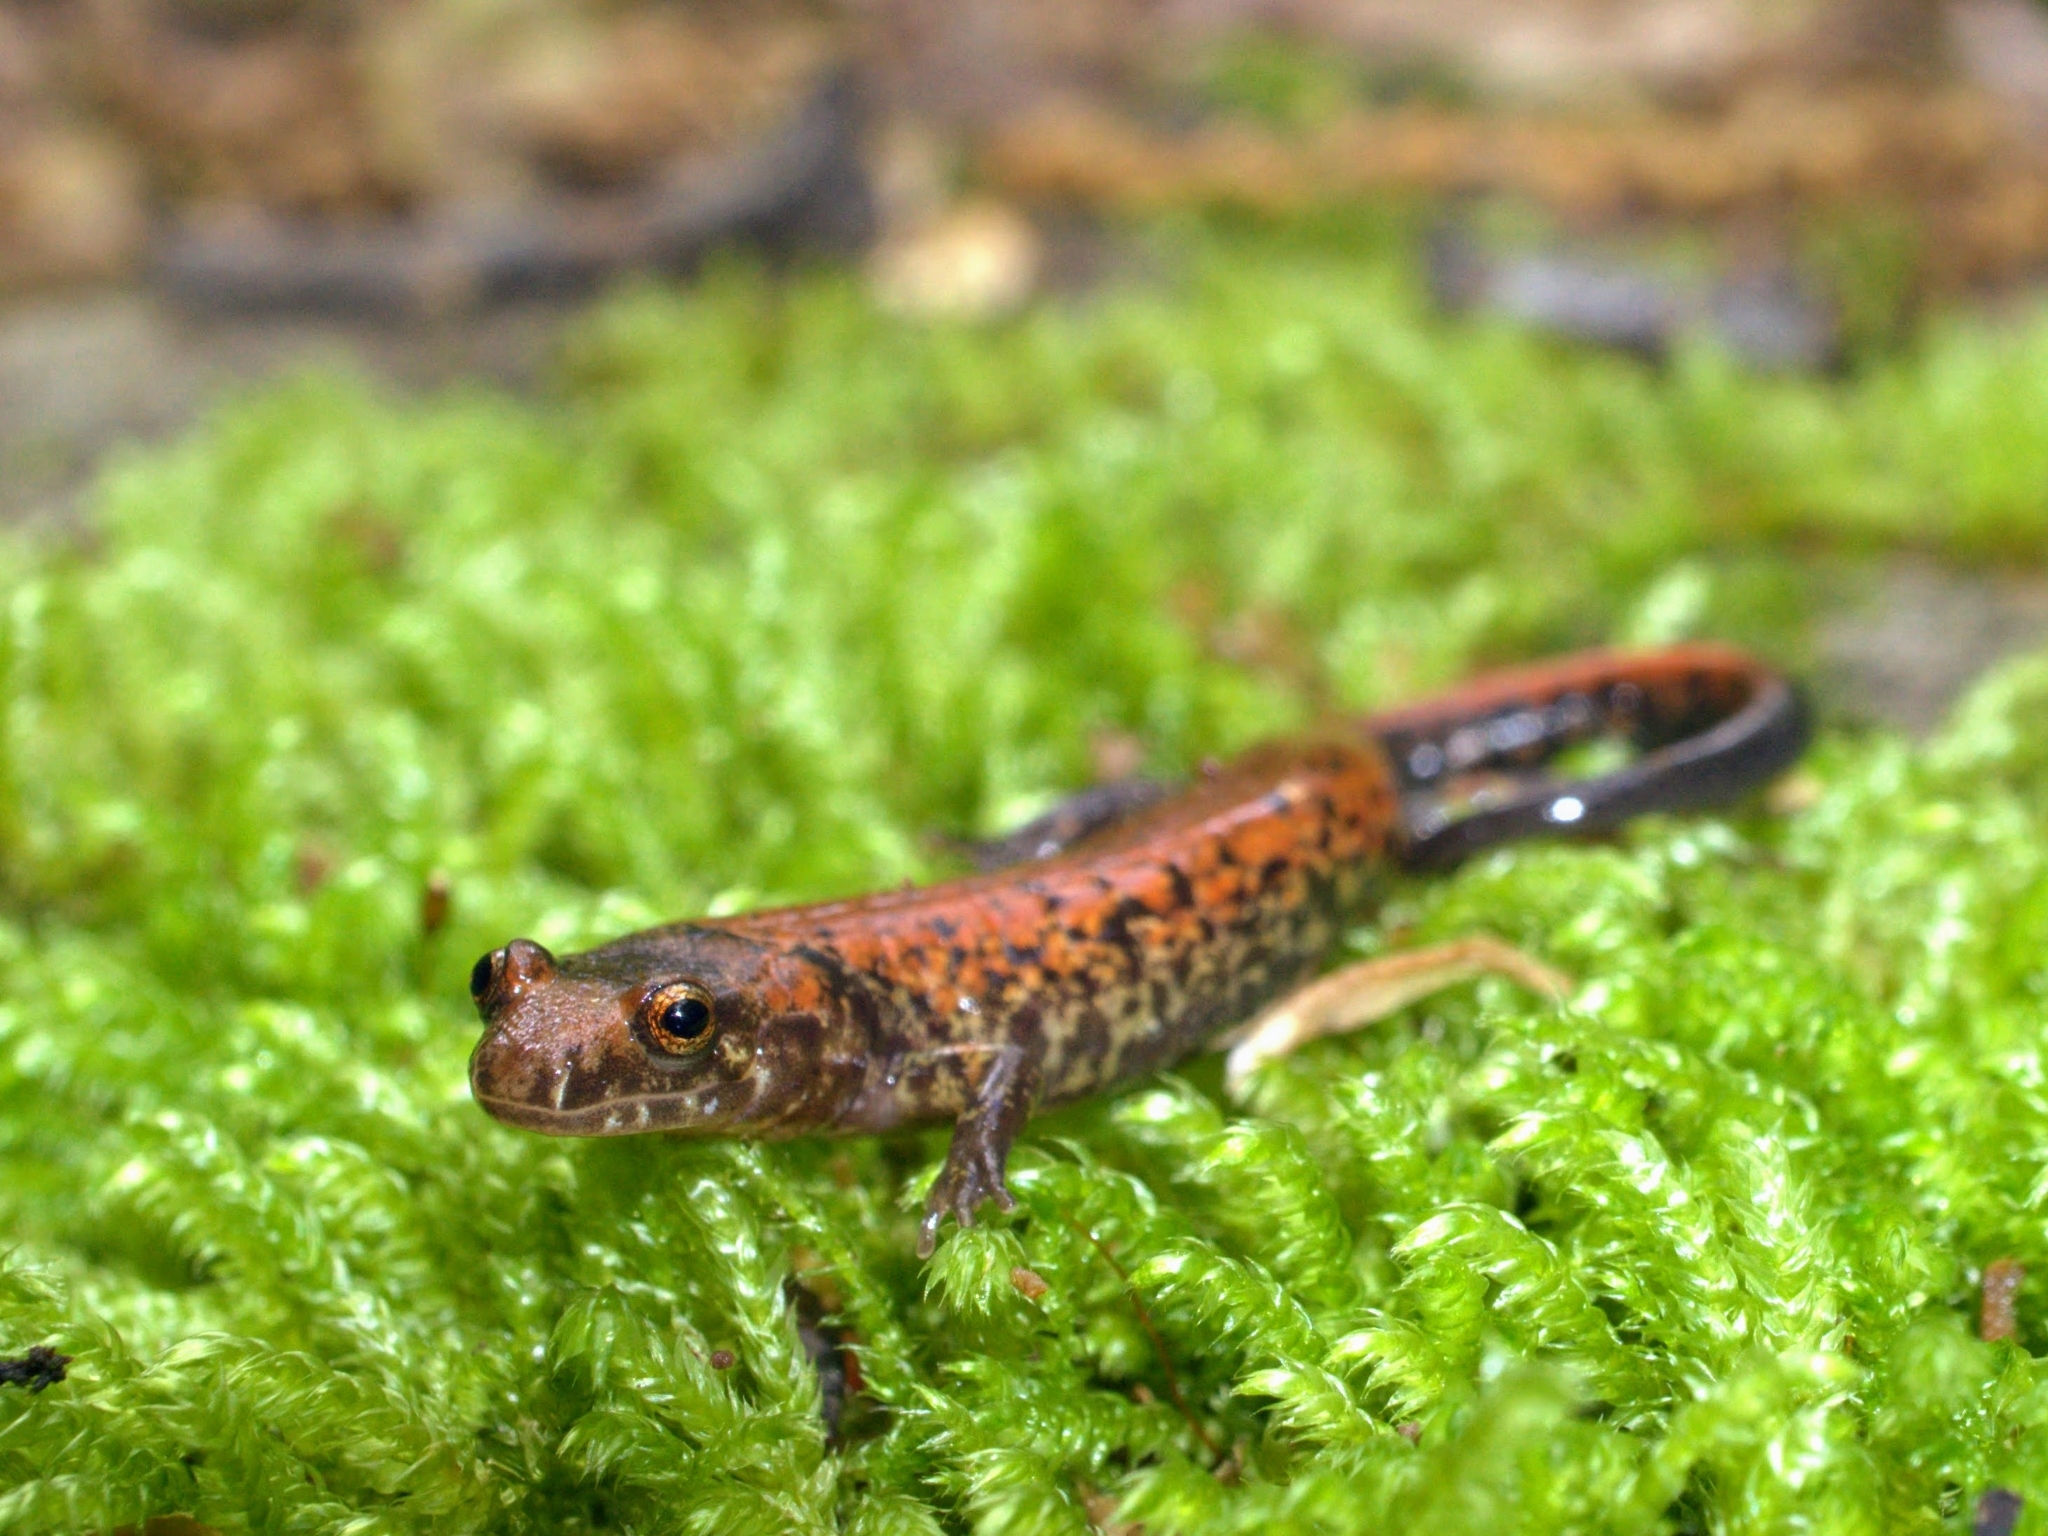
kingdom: Animalia
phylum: Chordata
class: Amphibia
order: Caudata
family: Plethodontidae
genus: Desmognathus
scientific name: Desmognathus adatsihi
